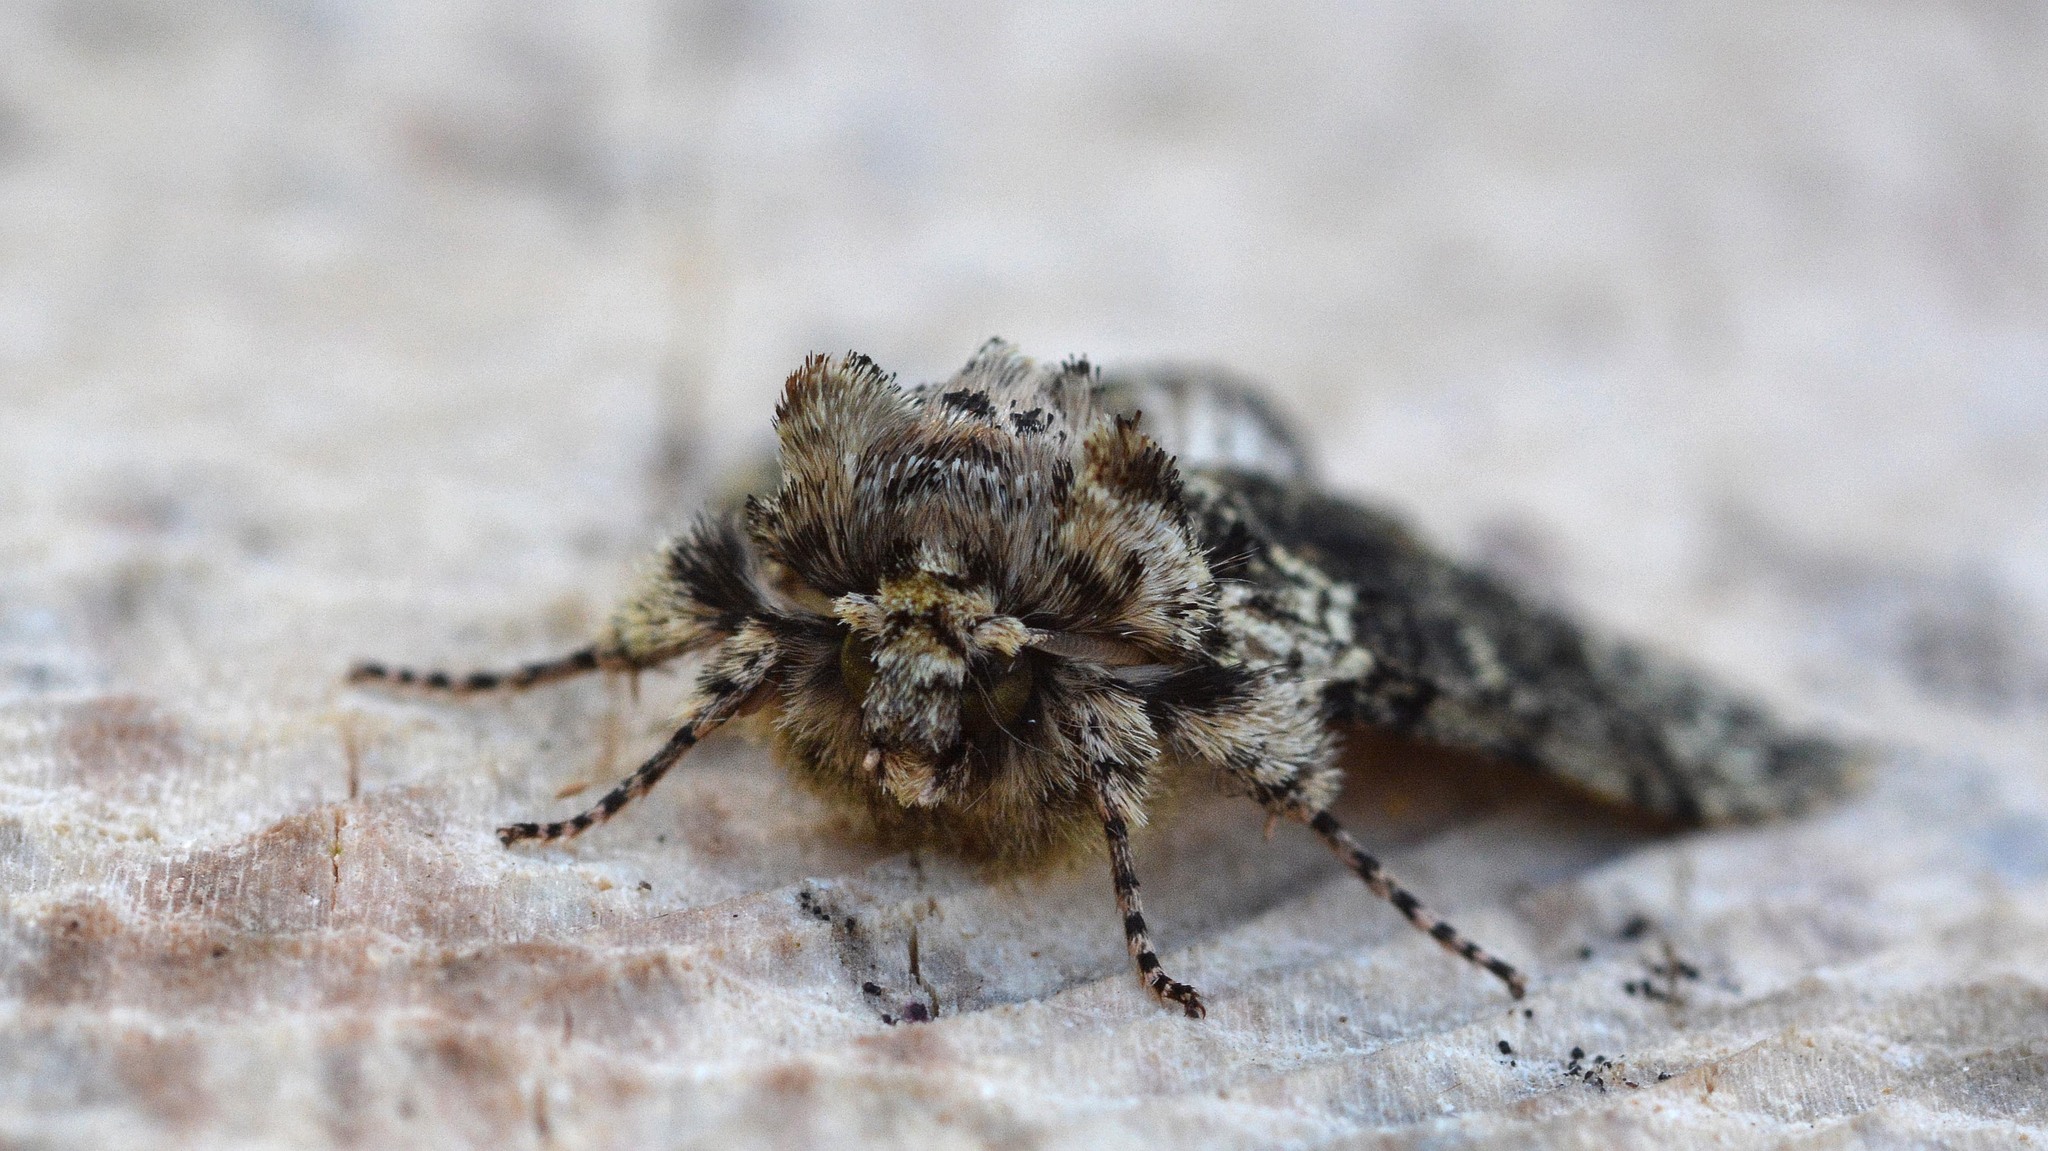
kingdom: Animalia
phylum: Arthropoda
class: Insecta
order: Lepidoptera
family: Drepanidae
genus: Polyploca
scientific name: Polyploca ridens
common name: Frosted green
